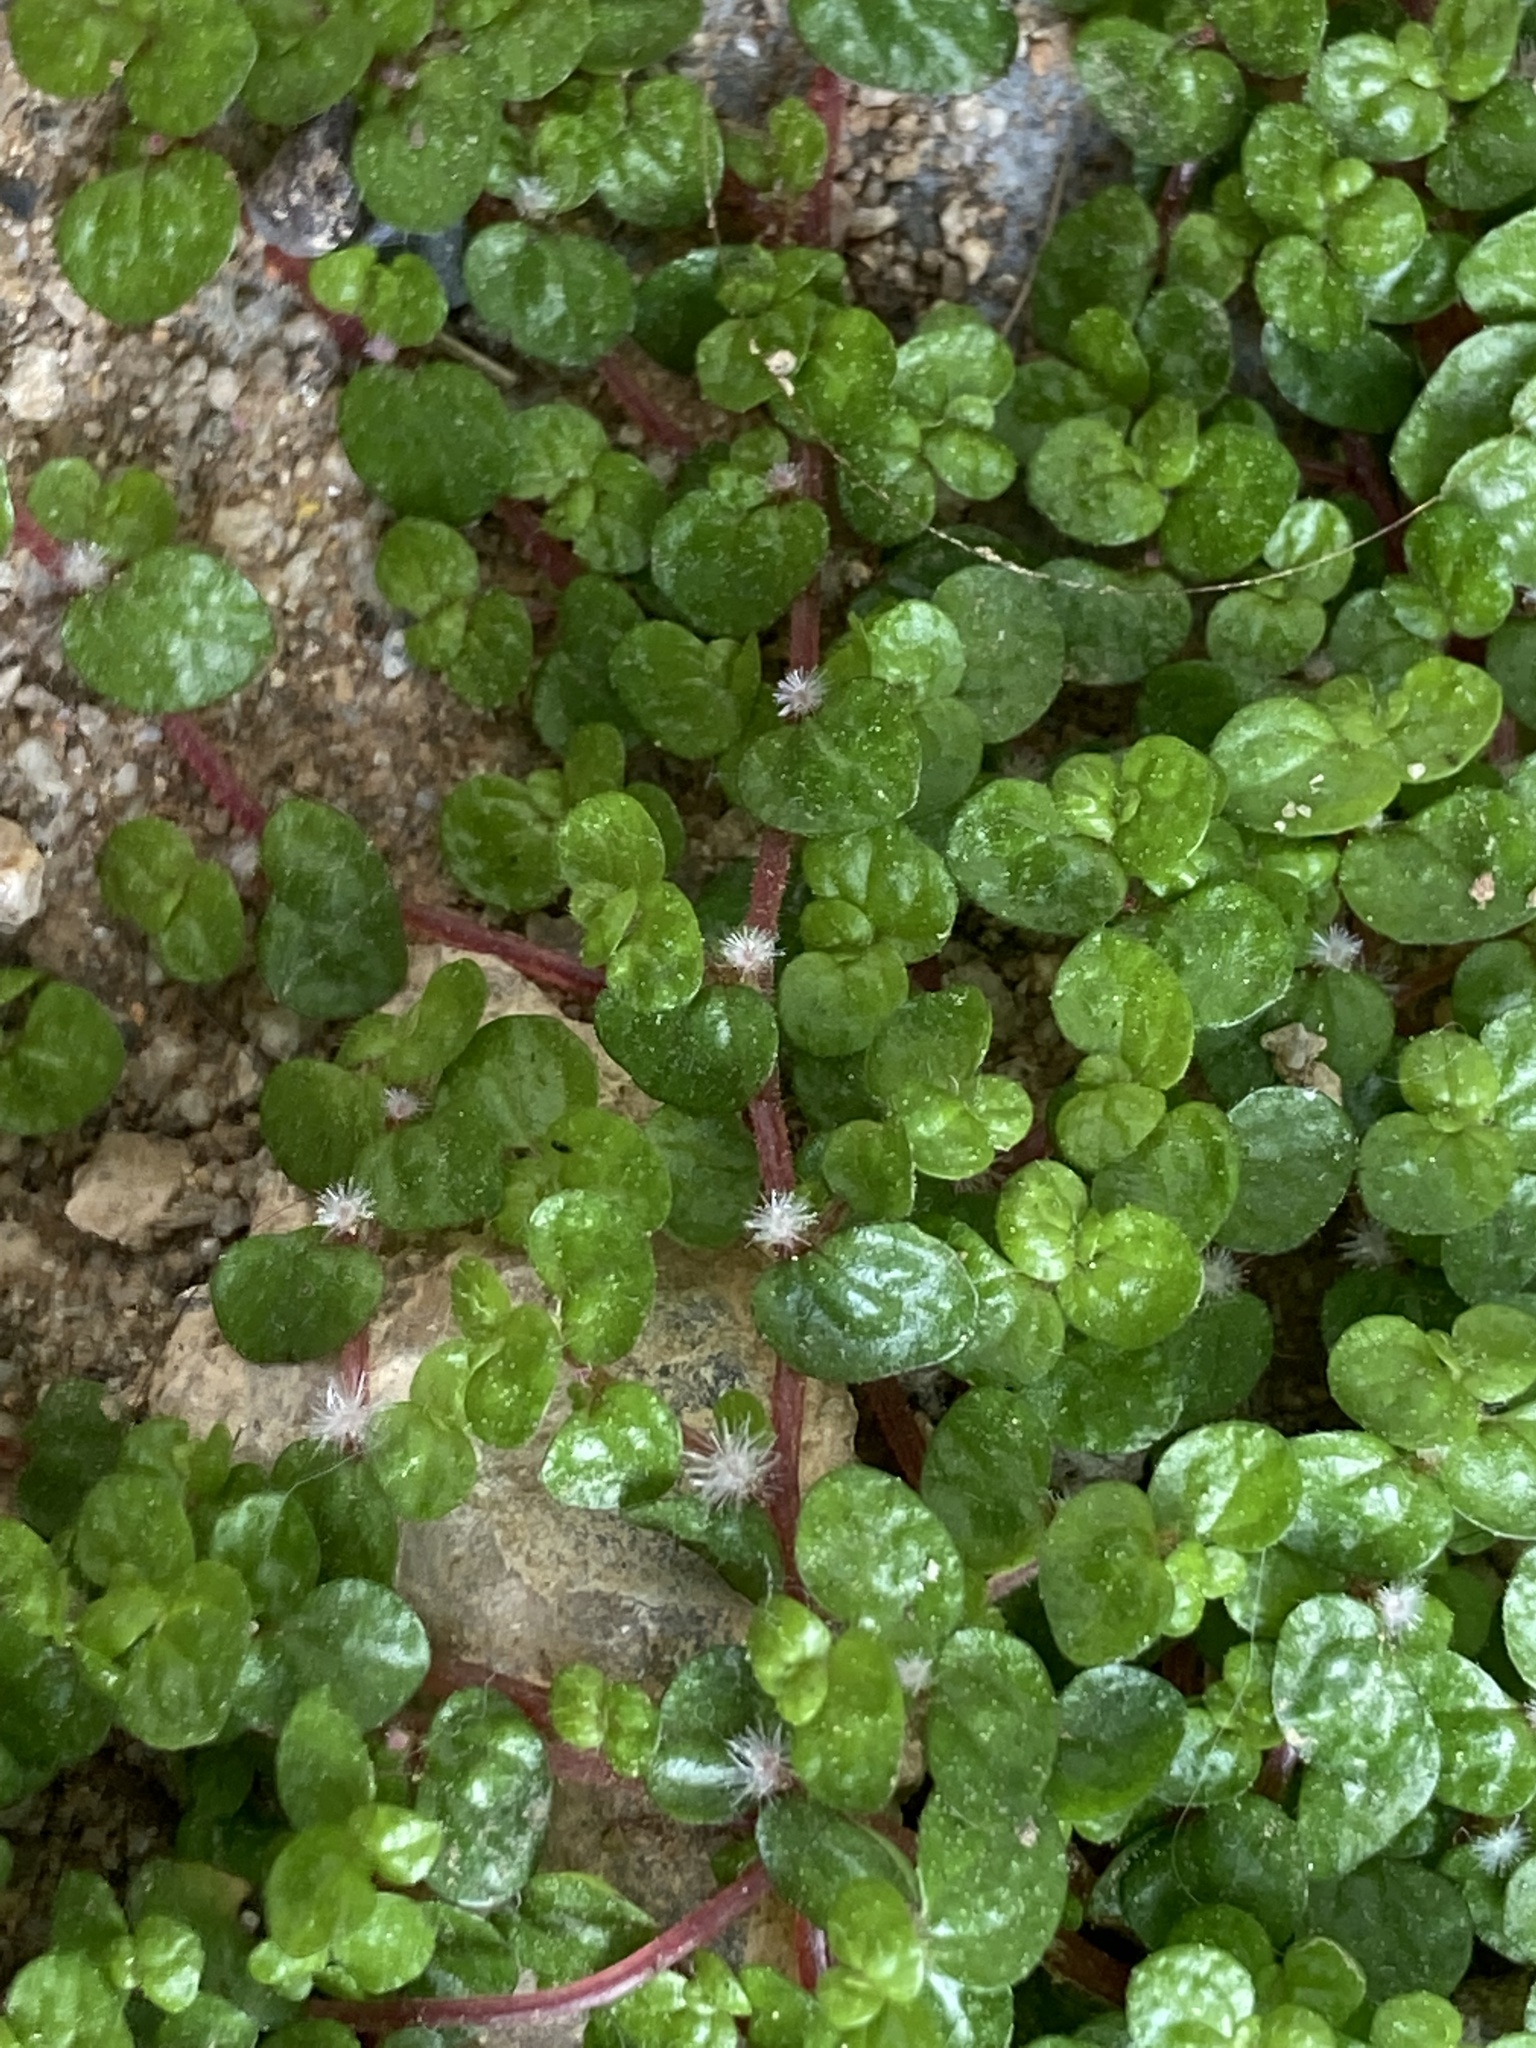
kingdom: Plantae
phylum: Tracheophyta
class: Magnoliopsida
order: Rosales
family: Urticaceae
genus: Soleirolia
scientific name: Soleirolia soleirolii
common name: Mind-your-own-business
